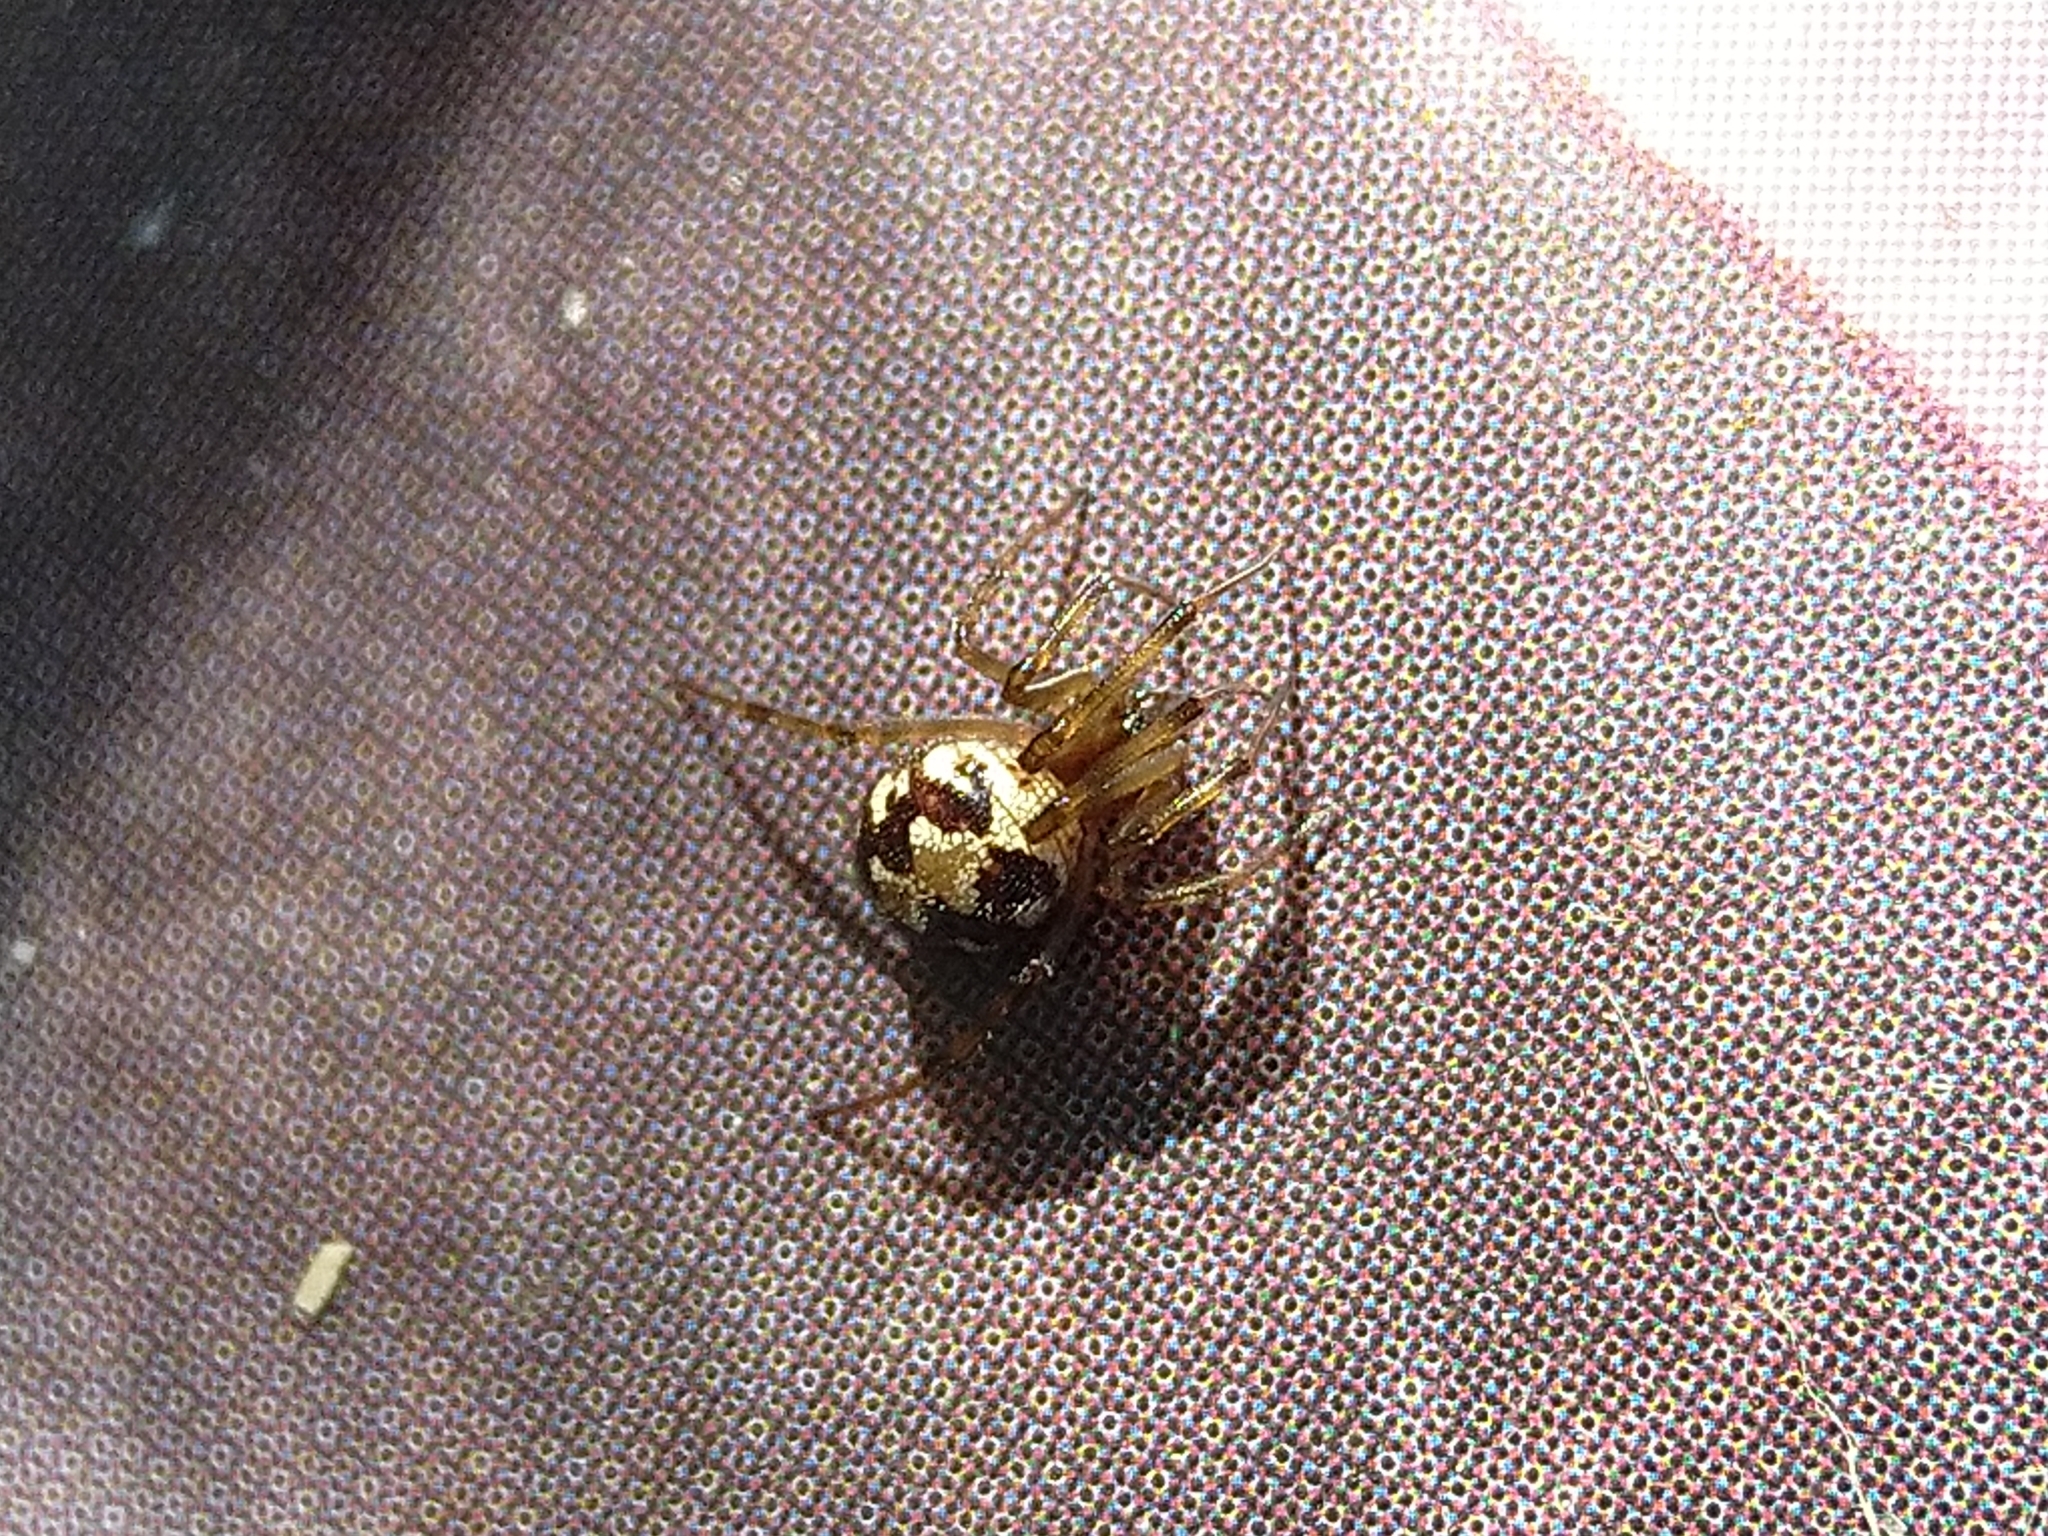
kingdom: Animalia
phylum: Arthropoda
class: Arachnida
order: Araneae
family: Theridiidae
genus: Steatoda
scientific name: Steatoda triangulosa
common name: Triangulate bud spider
